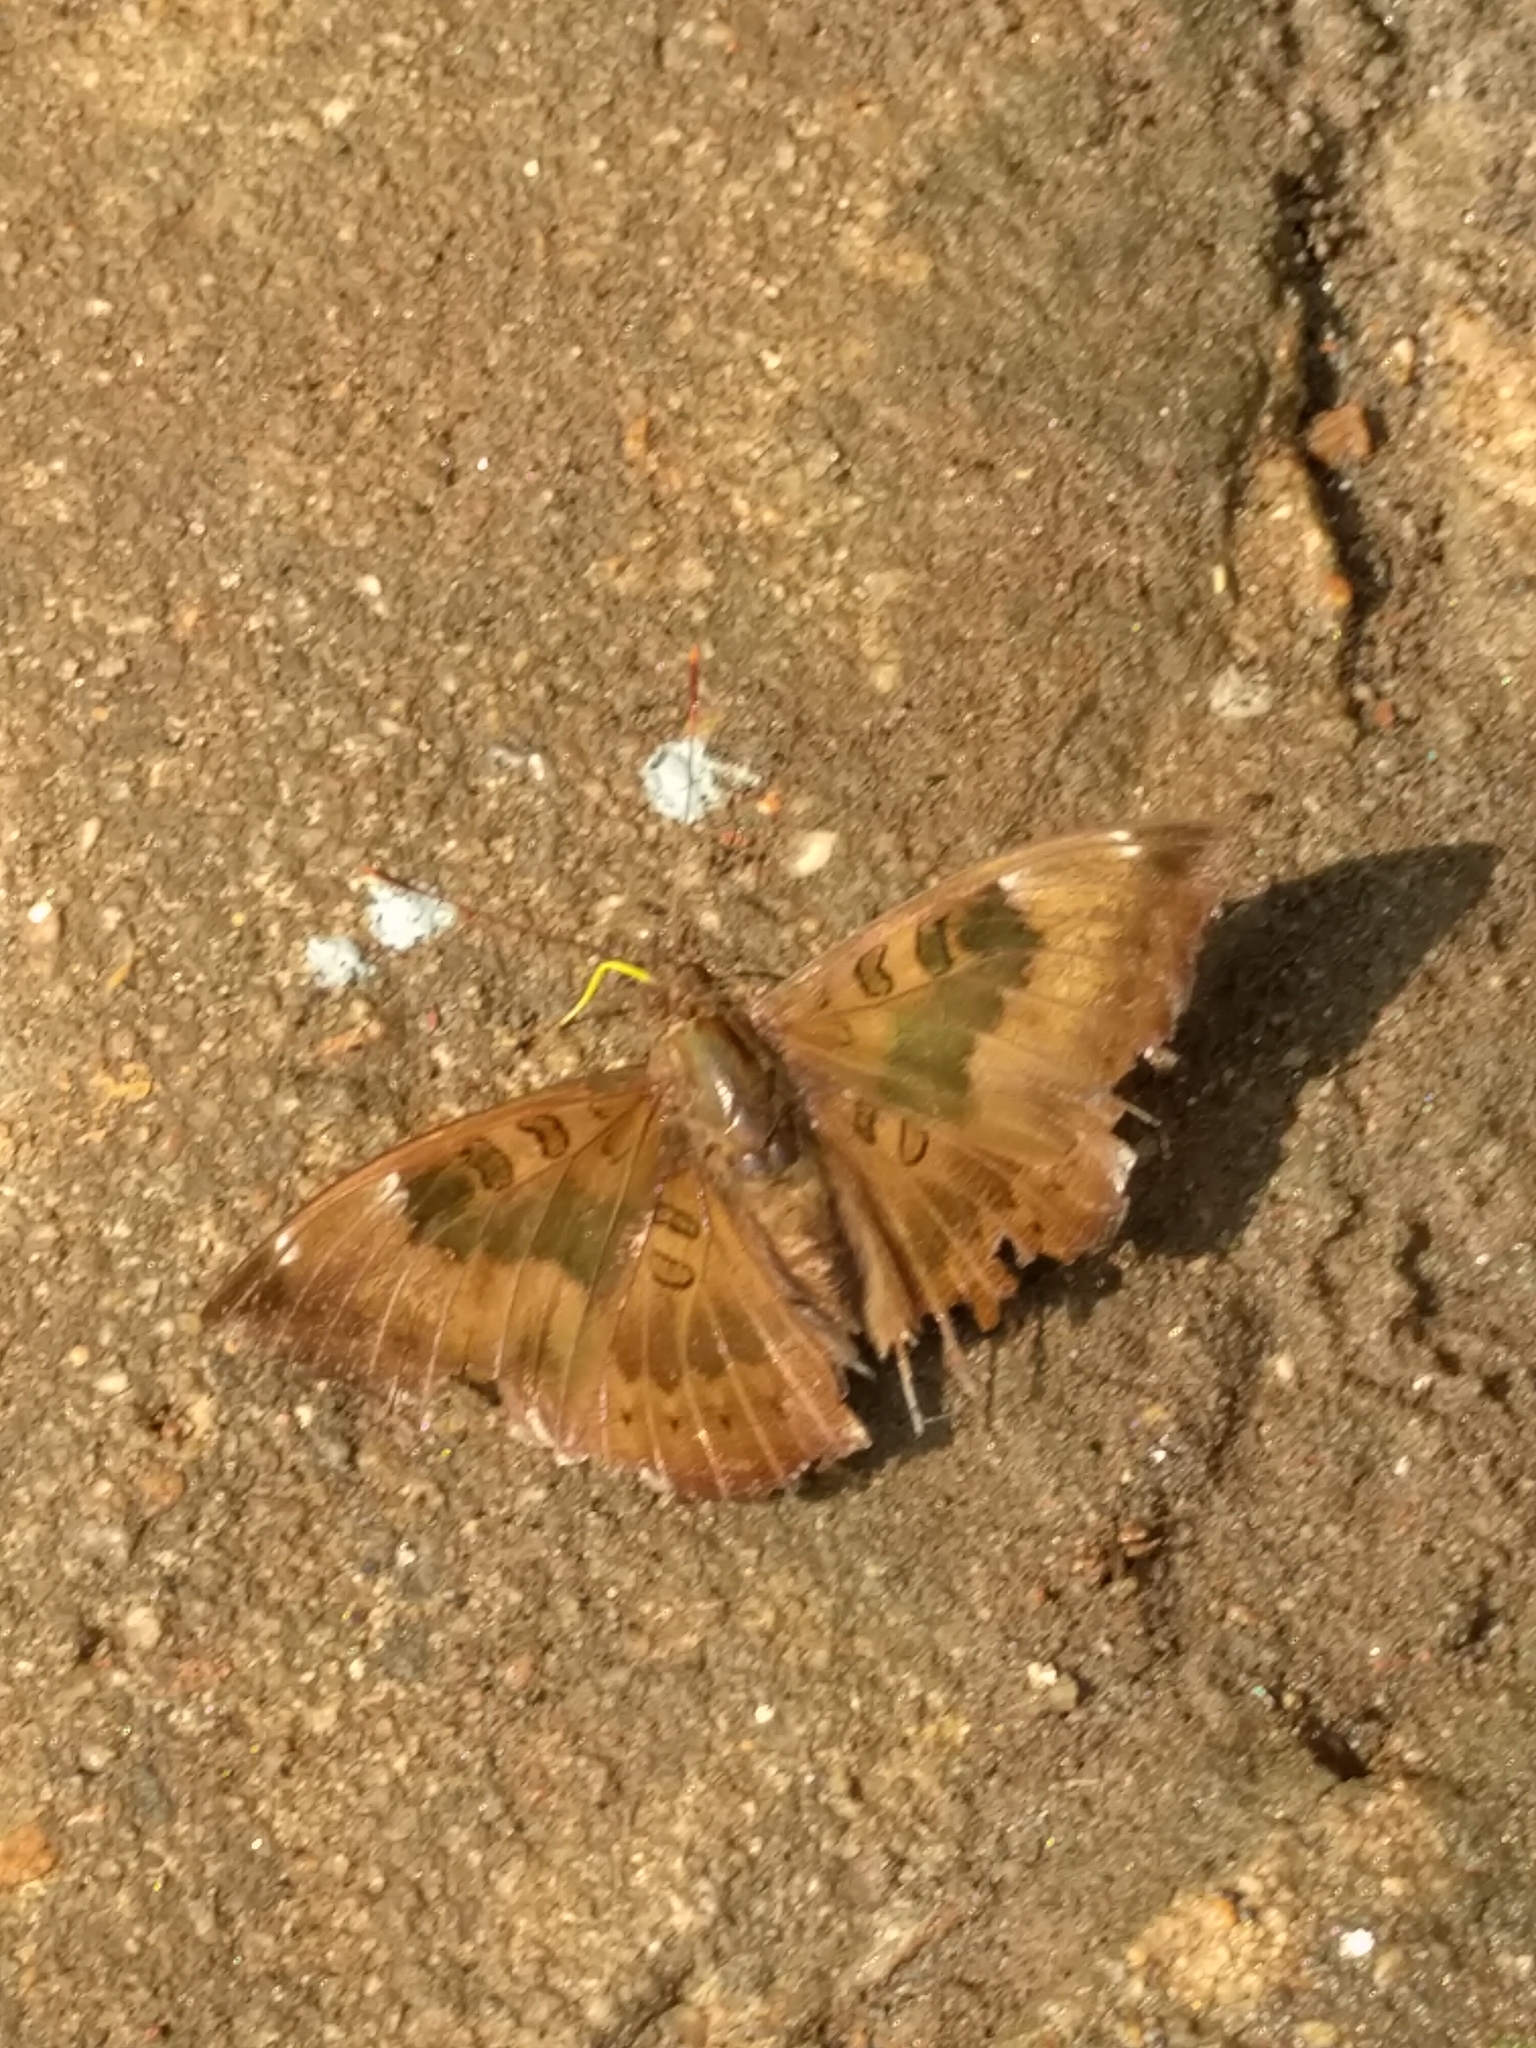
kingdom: Animalia
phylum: Arthropoda
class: Insecta
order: Lepidoptera
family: Nymphalidae
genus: Euthalia
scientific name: Euthalia aconthea
